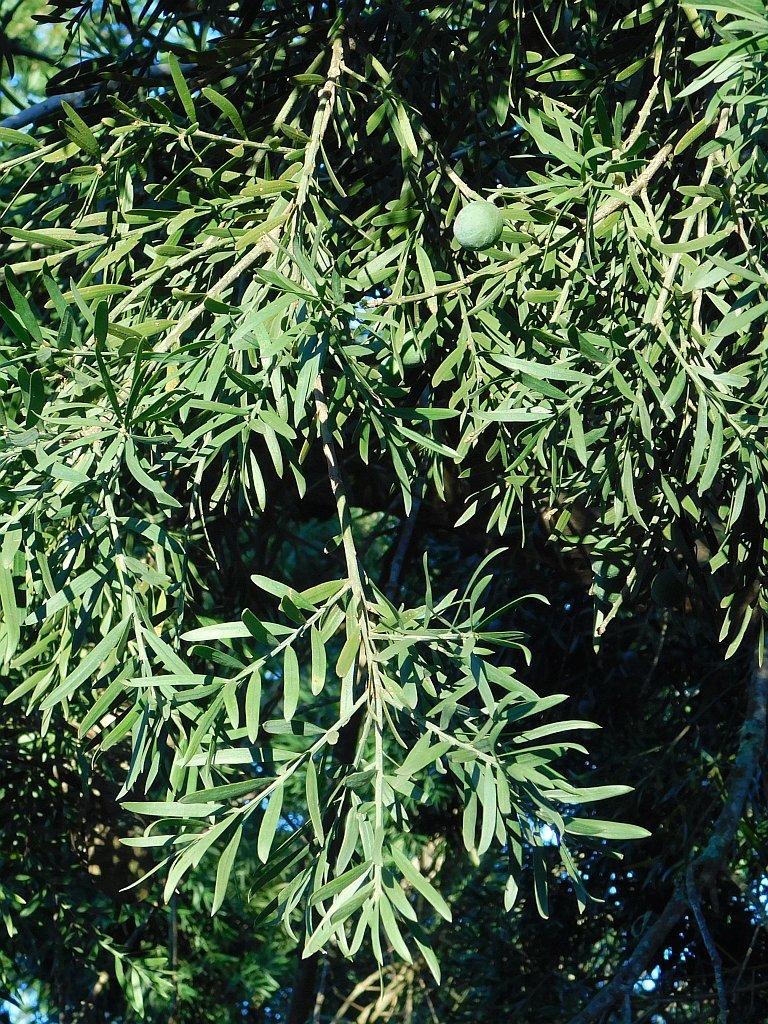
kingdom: Plantae
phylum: Tracheophyta
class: Pinopsida
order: Pinales
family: Podocarpaceae
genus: Afrocarpus
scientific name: Afrocarpus falcatus
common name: Bastard yellowwood
